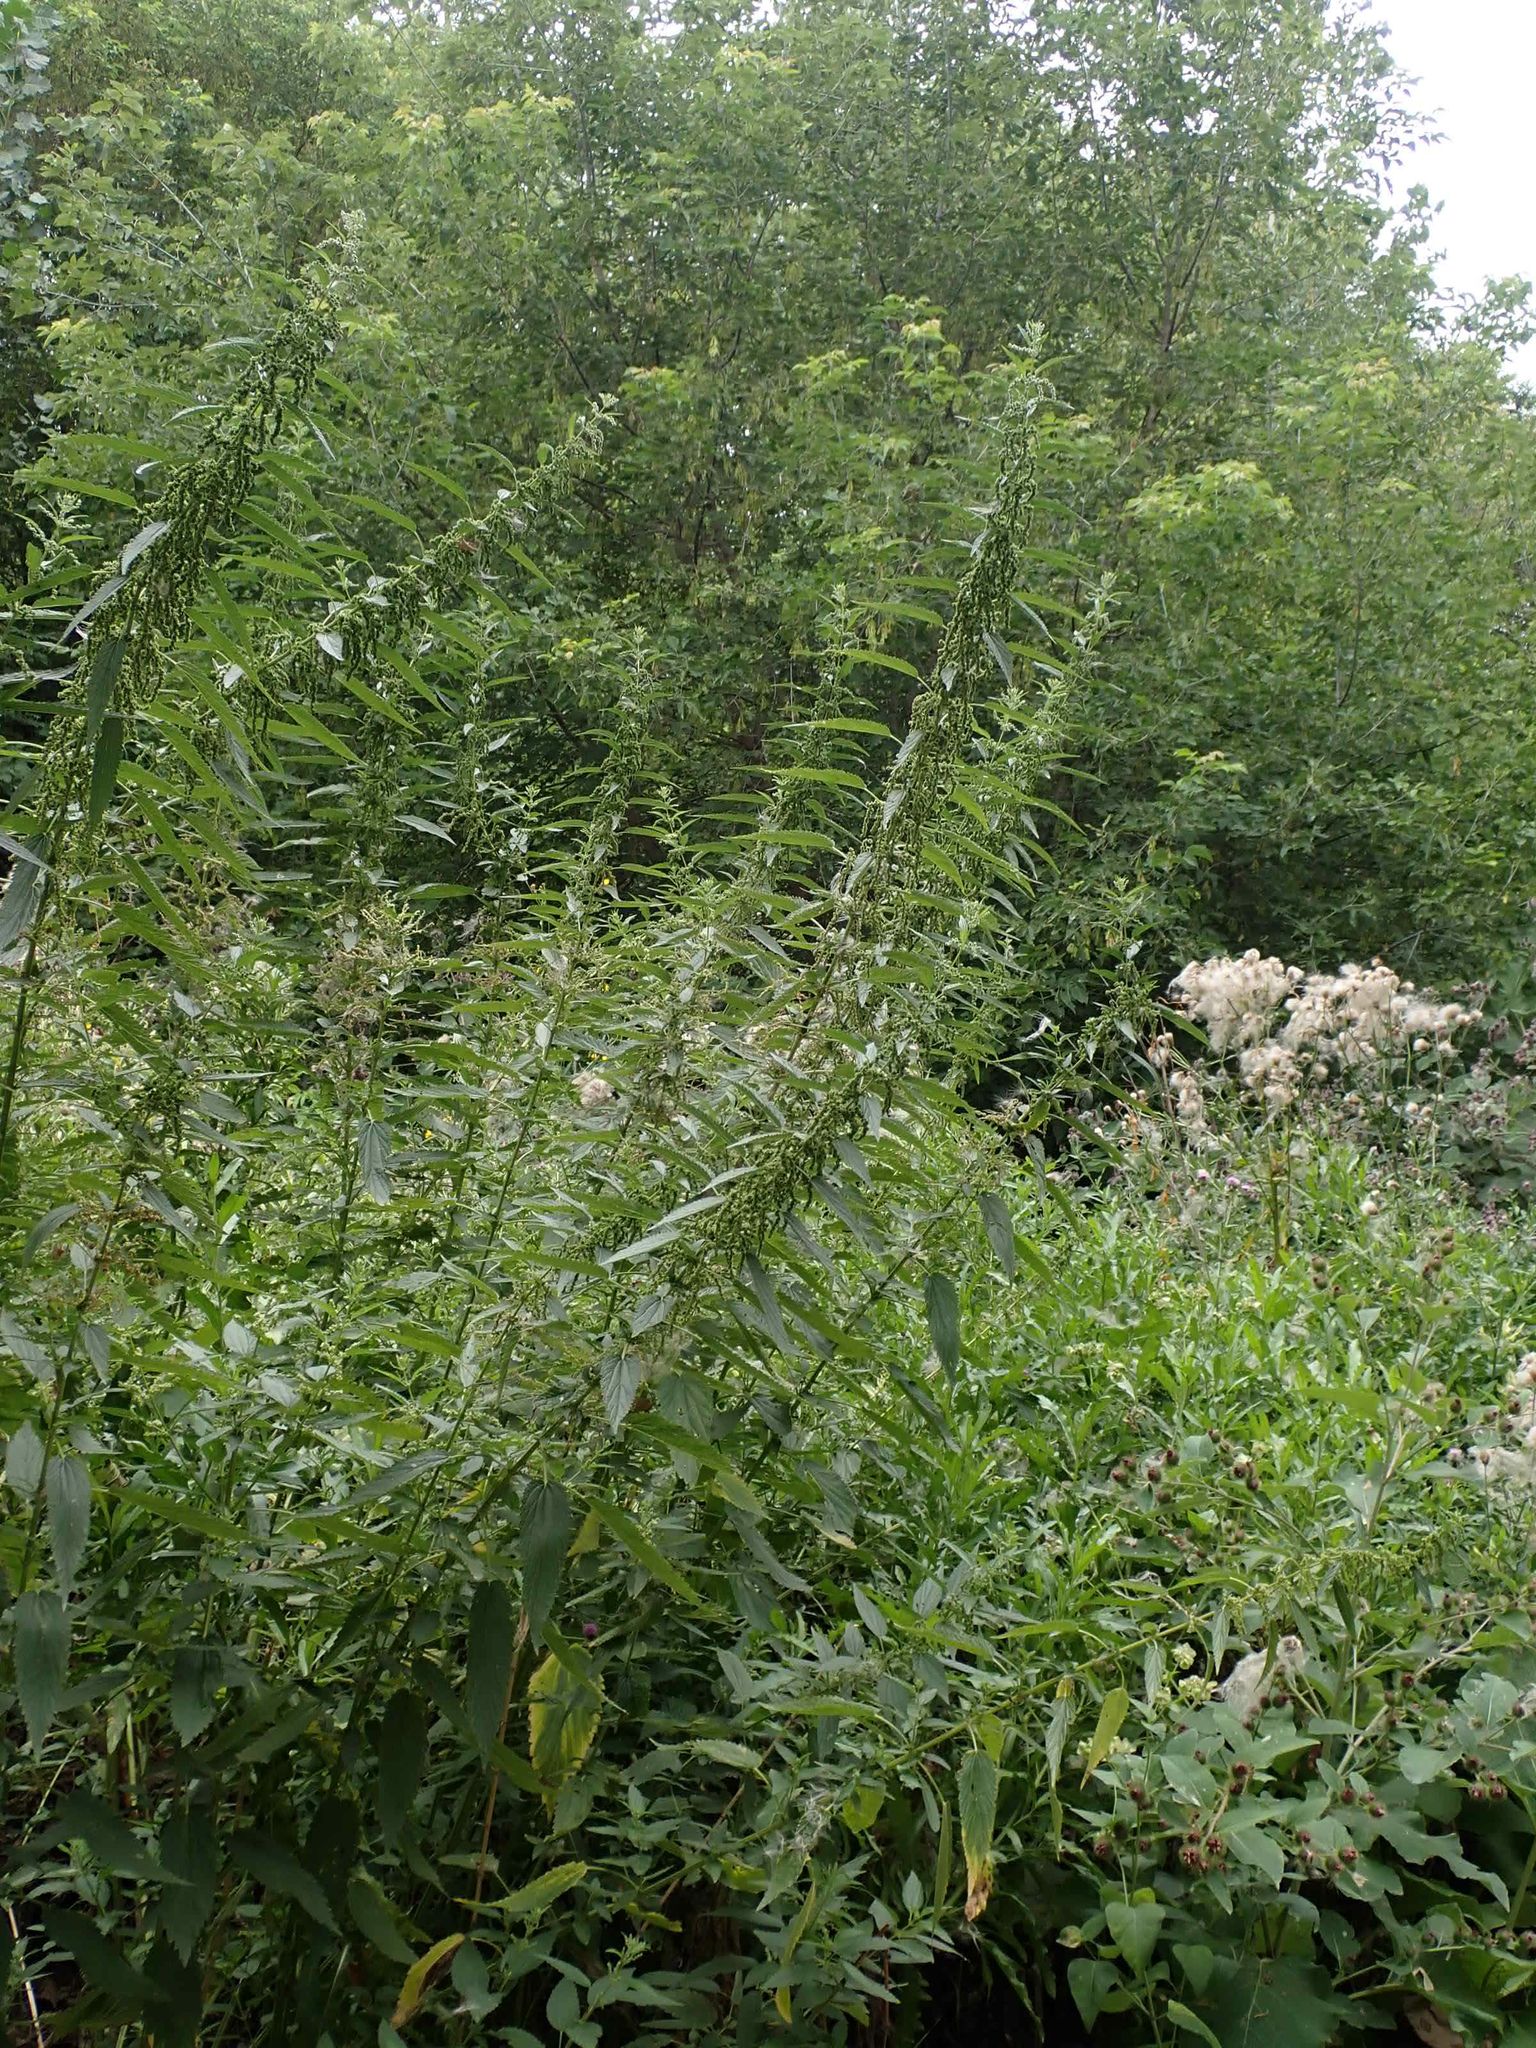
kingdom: Plantae
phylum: Tracheophyta
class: Magnoliopsida
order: Rosales
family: Urticaceae
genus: Urtica
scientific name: Urtica gracilis
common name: Slender stinging nettle
